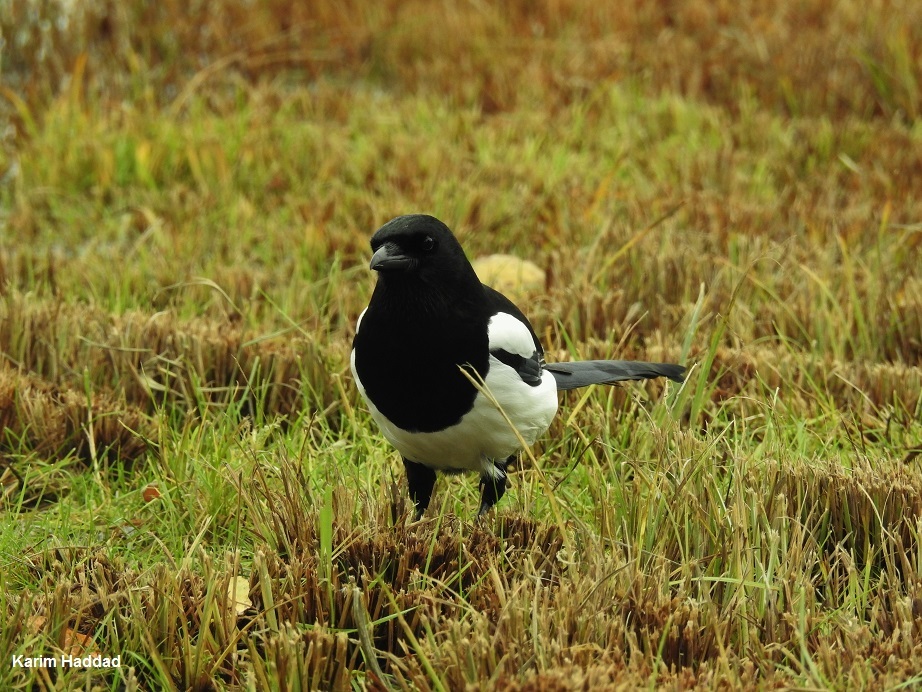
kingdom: Animalia
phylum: Chordata
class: Aves
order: Passeriformes
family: Corvidae
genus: Pica
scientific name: Pica pica
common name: Eurasian magpie
